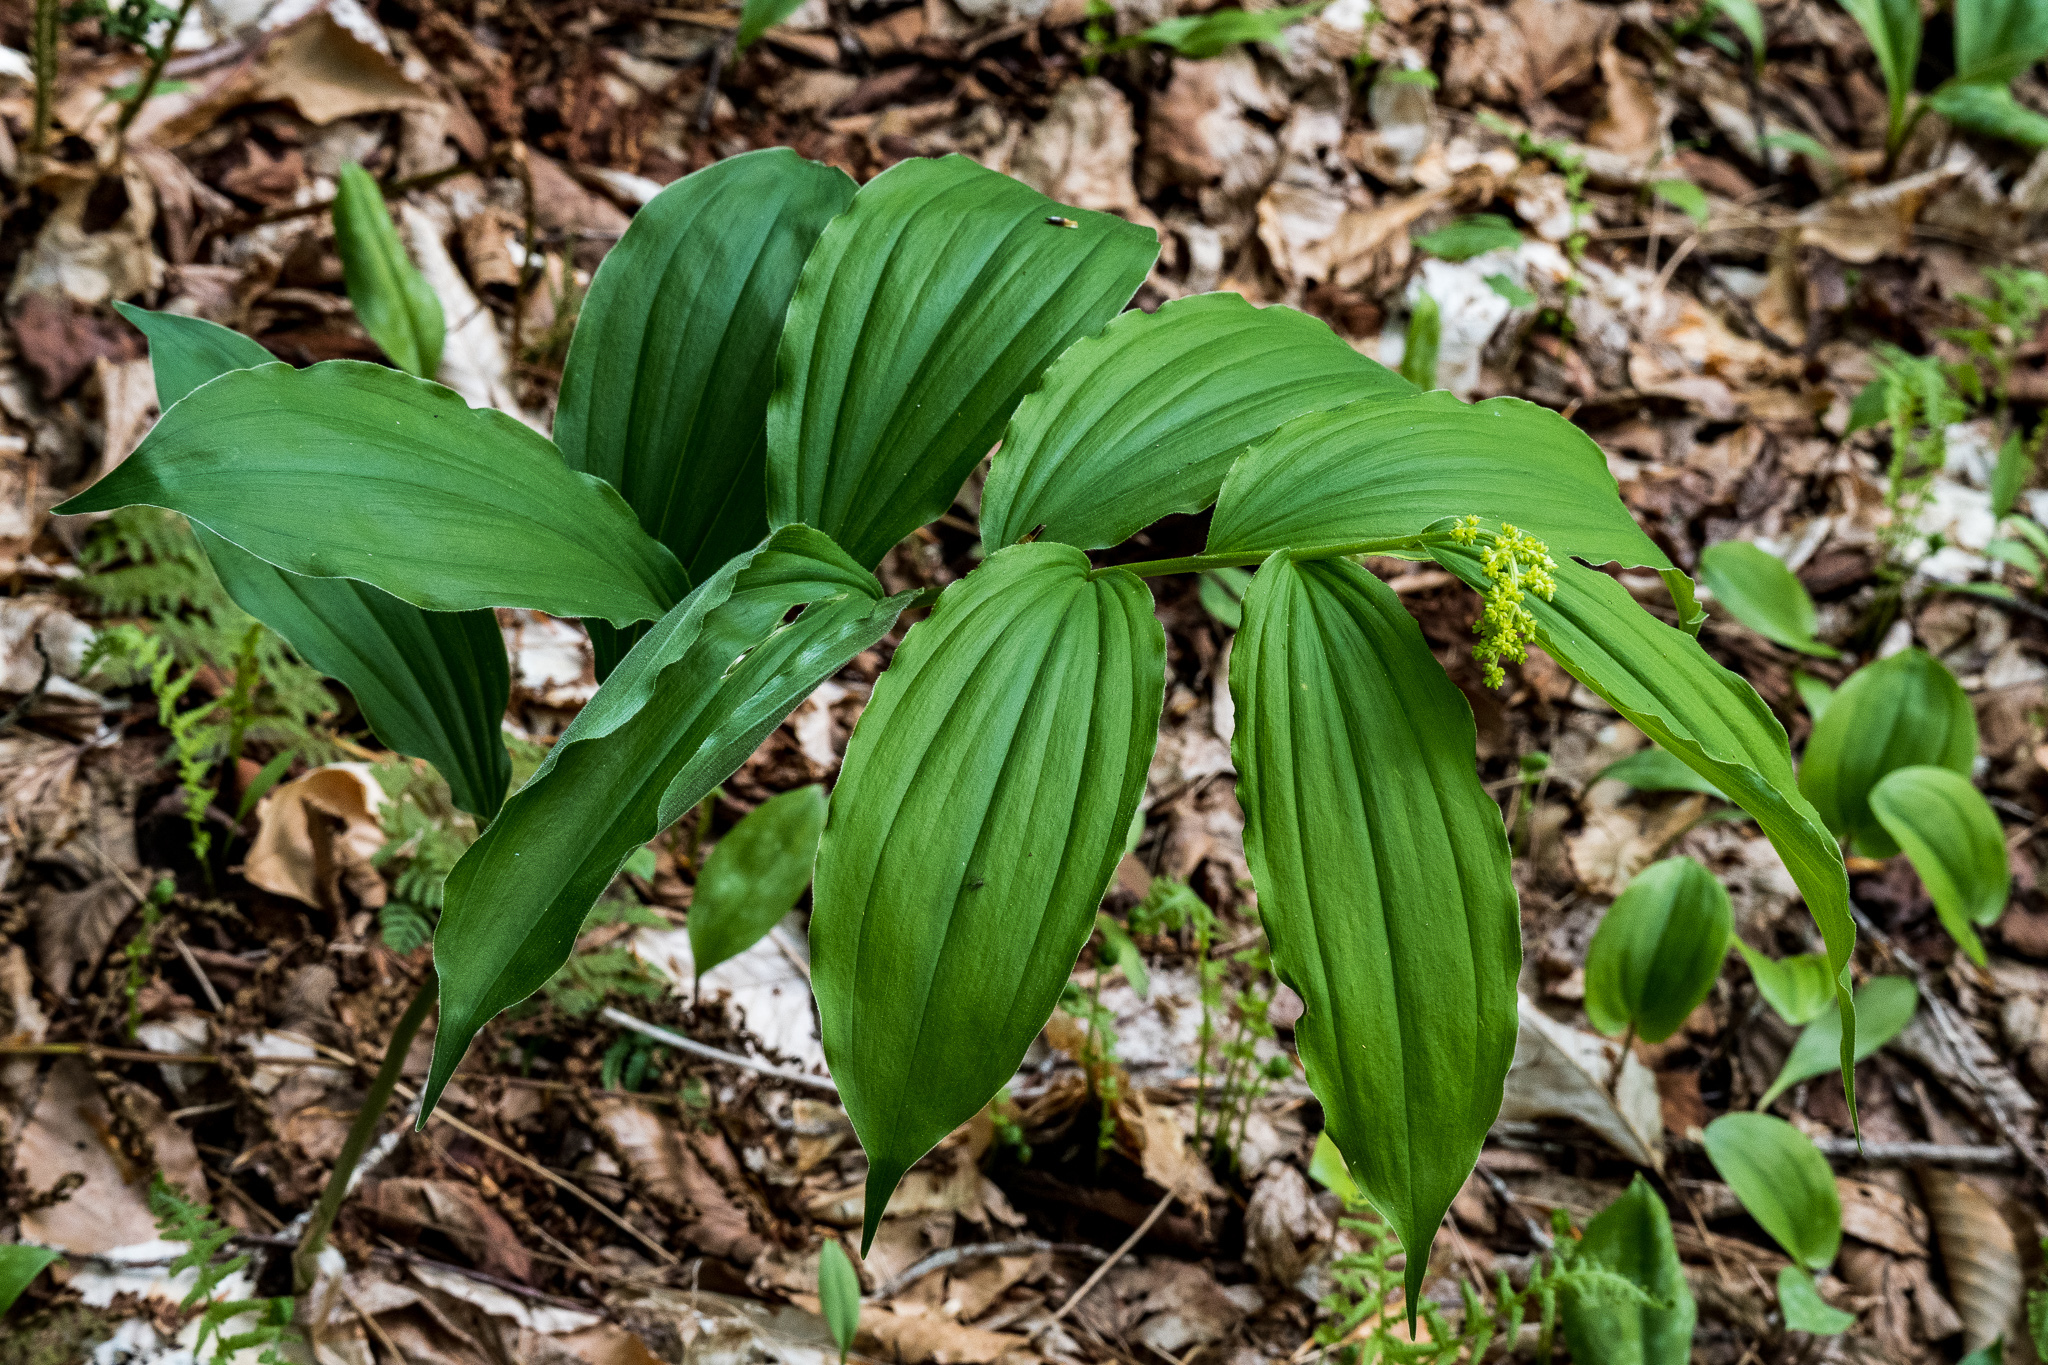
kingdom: Plantae
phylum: Tracheophyta
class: Liliopsida
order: Asparagales
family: Asparagaceae
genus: Maianthemum
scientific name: Maianthemum racemosum
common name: False spikenard
